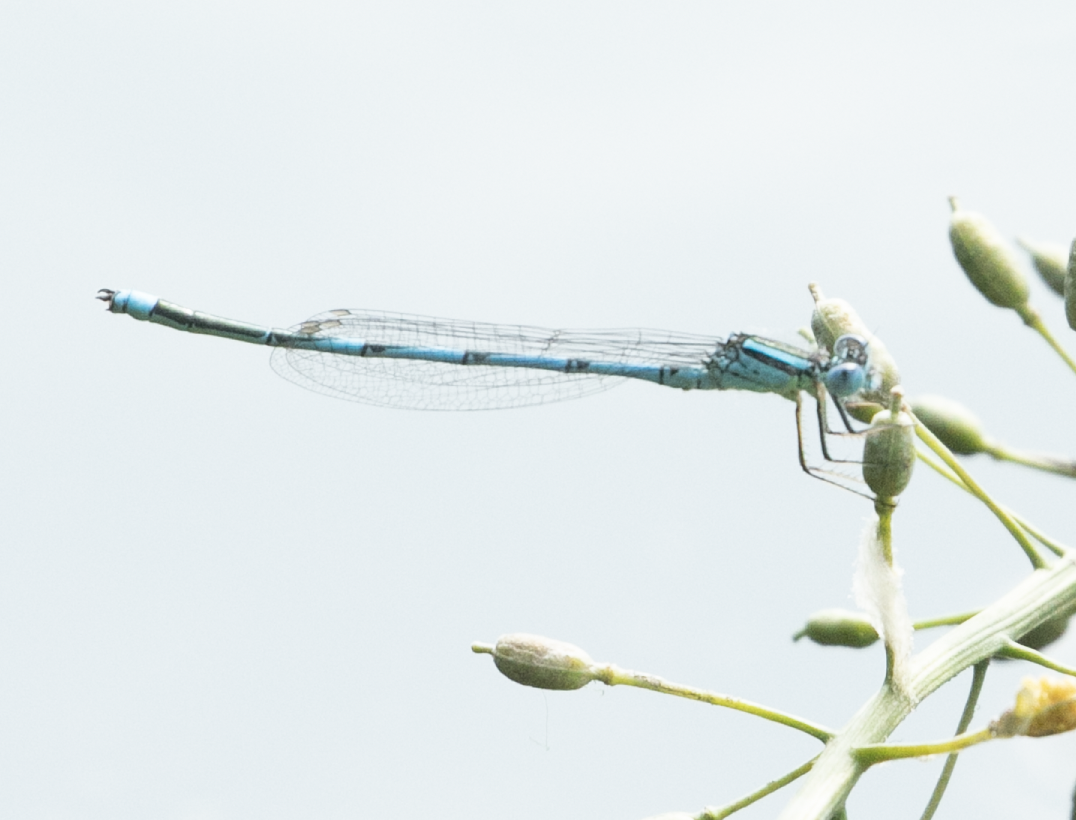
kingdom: Animalia
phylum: Arthropoda
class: Insecta
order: Odonata
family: Coenagrionidae
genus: Erythromma
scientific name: Erythromma lindenii
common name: Blue-eye
